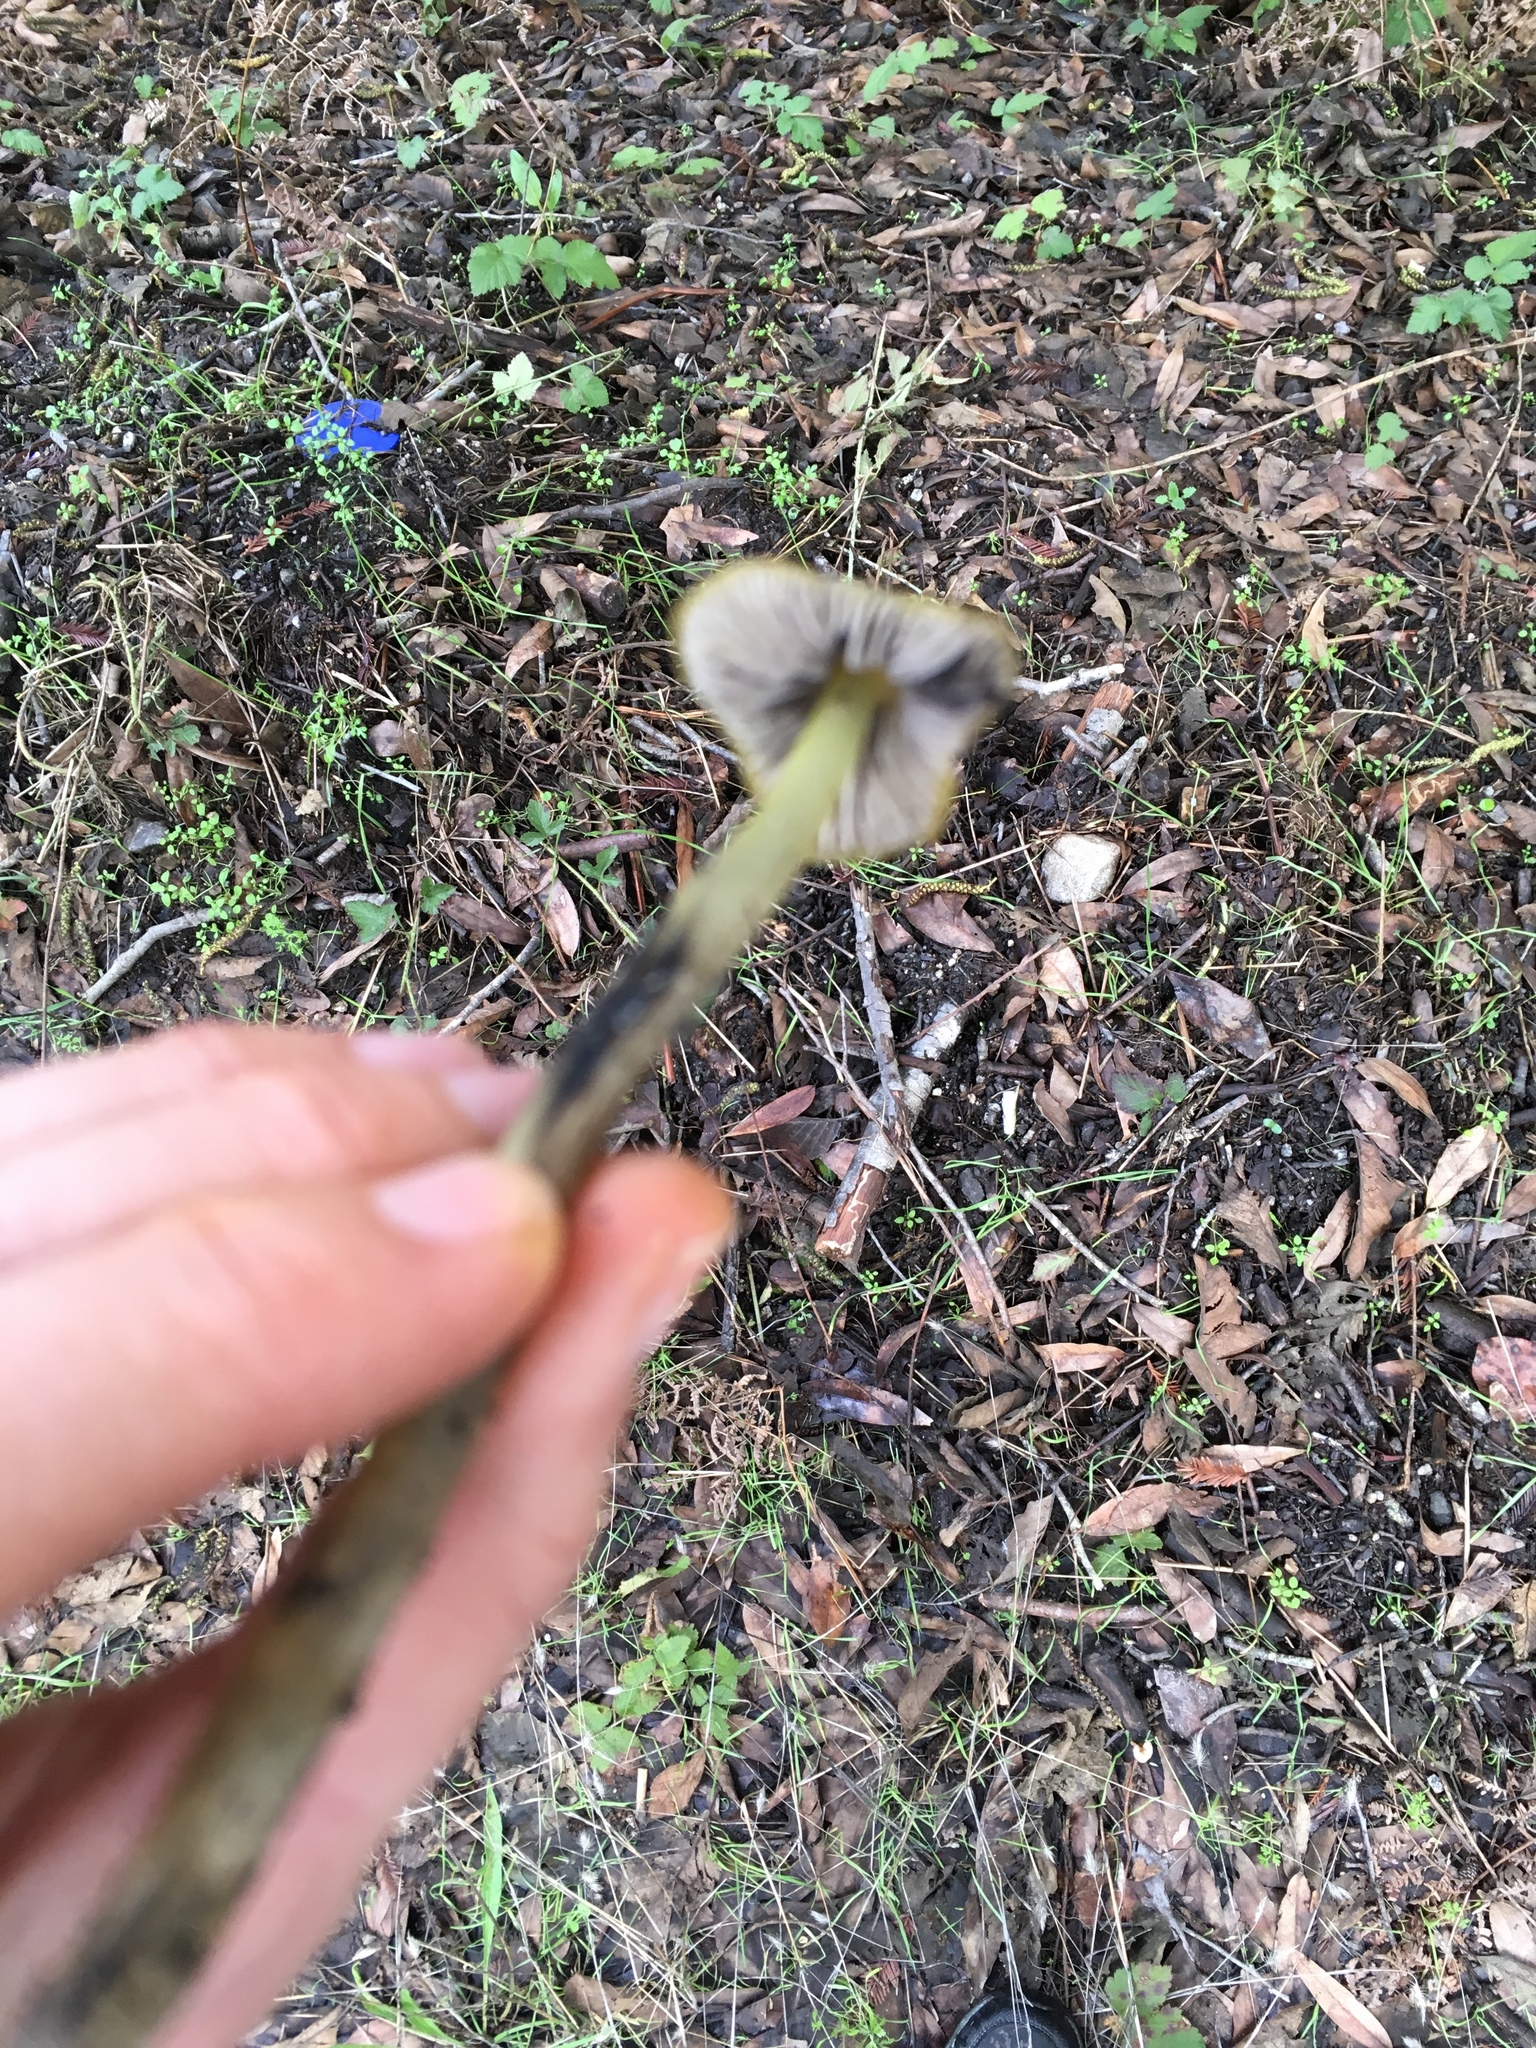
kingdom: Fungi
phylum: Basidiomycota
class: Agaricomycetes
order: Agaricales
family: Hygrophoraceae
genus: Hygrocybe
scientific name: Hygrocybe singeri
